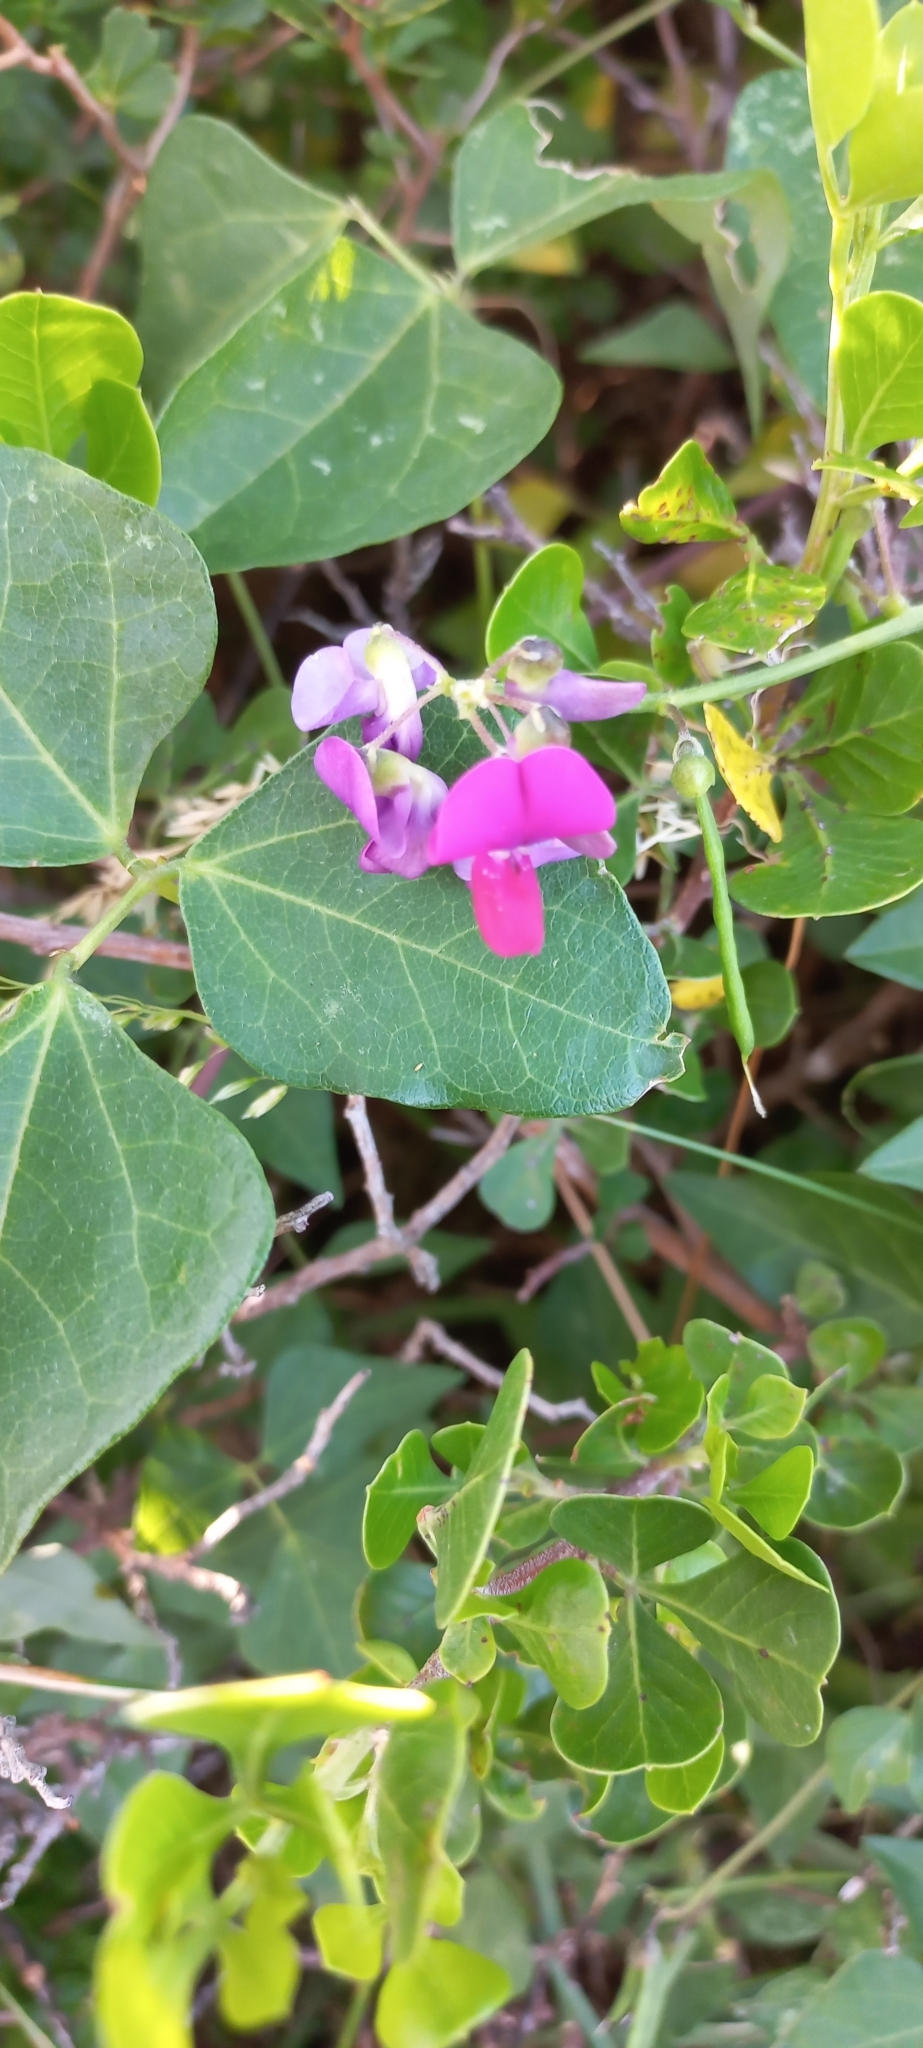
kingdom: Plantae
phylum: Tracheophyta
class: Magnoliopsida
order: Fabales
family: Fabaceae
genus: Dipogon
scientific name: Dipogon lignosus
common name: Okie bean
